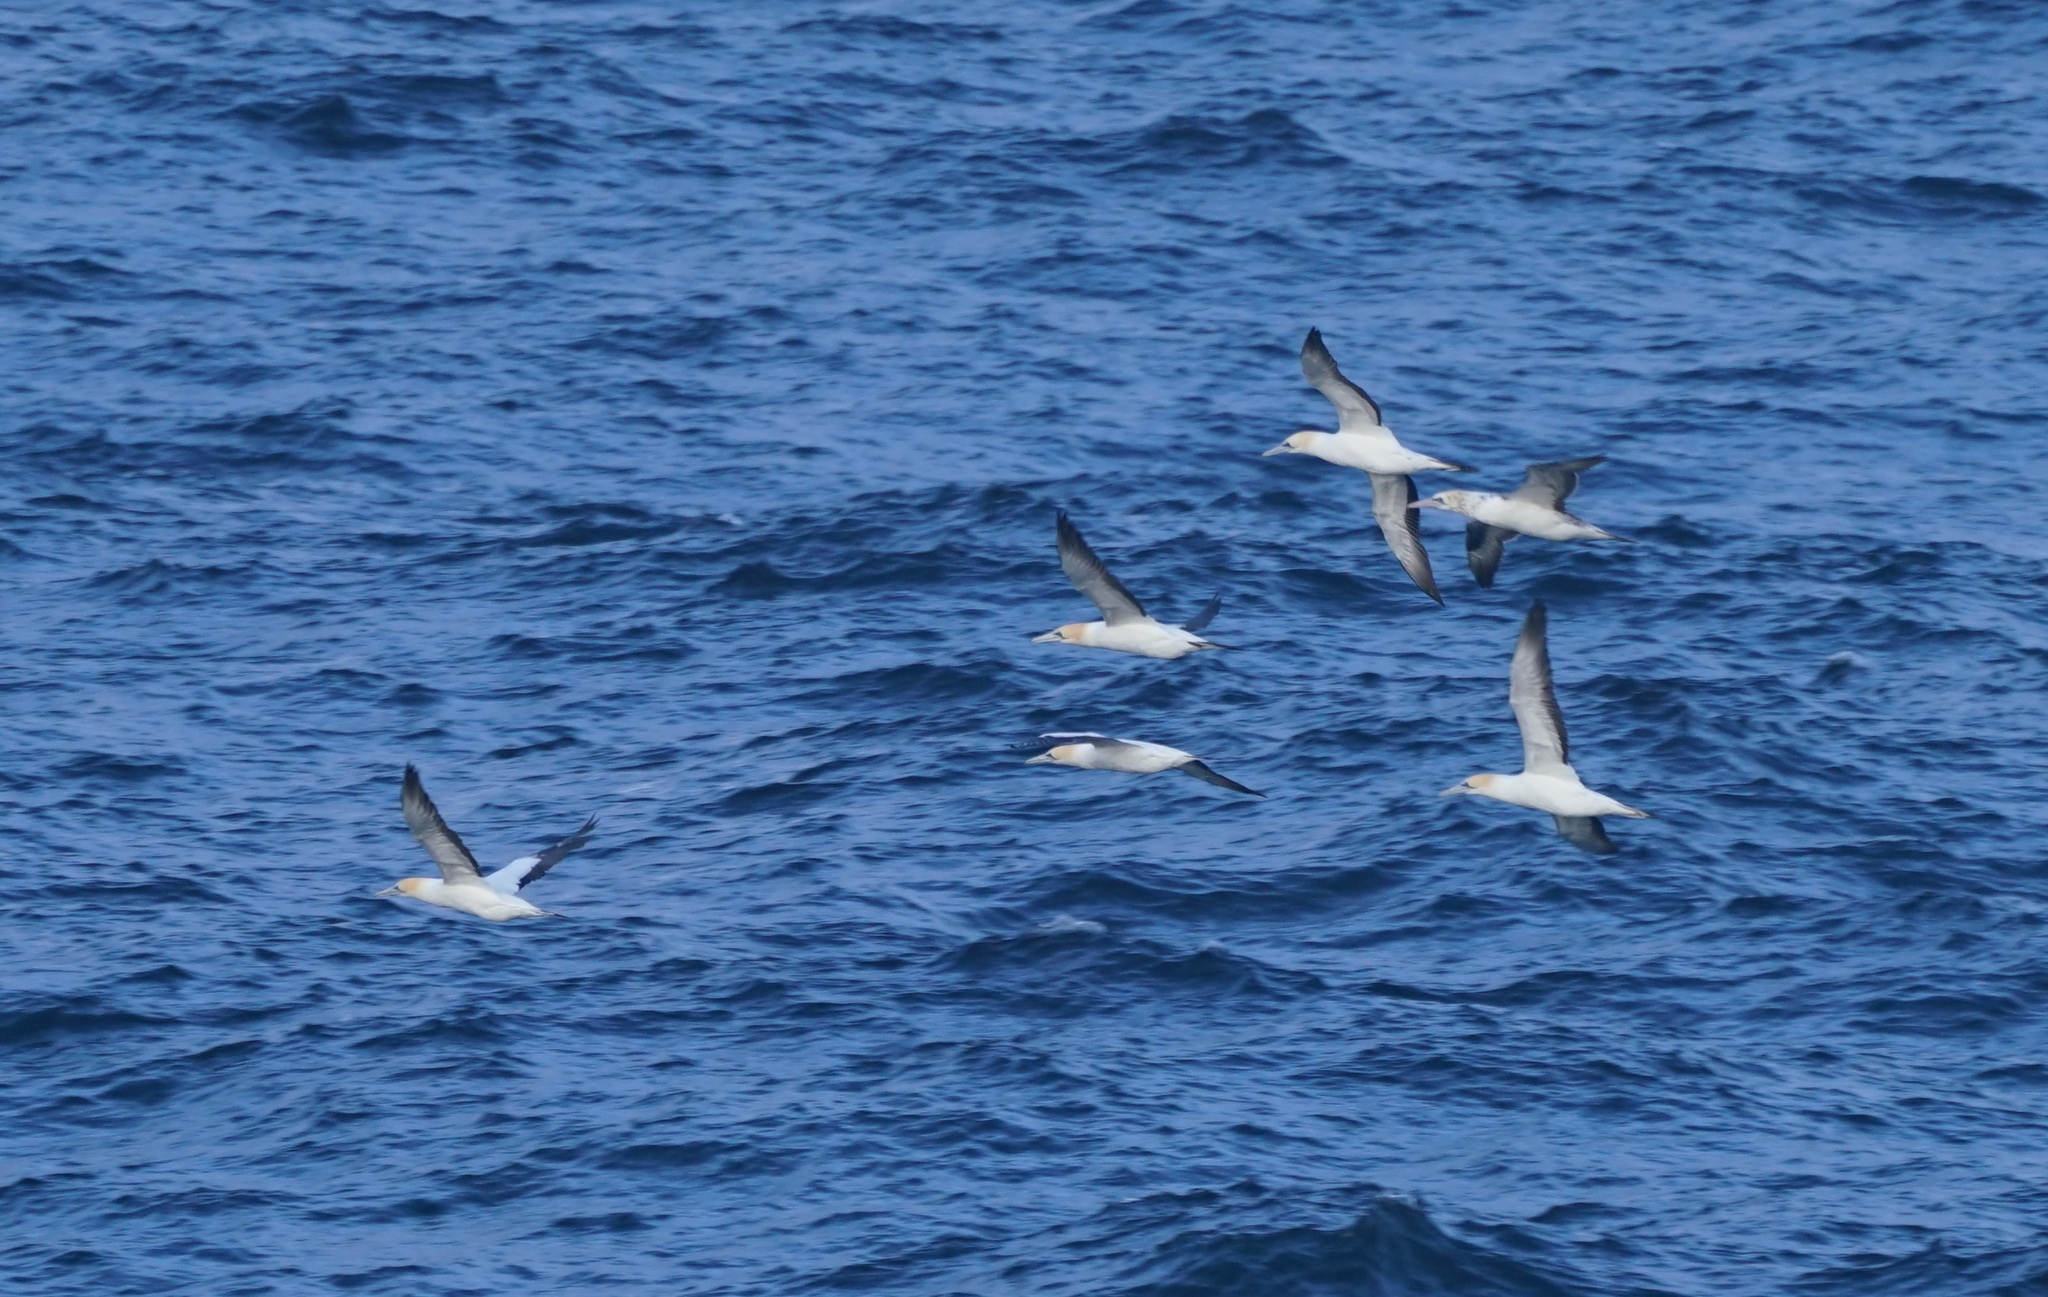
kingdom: Animalia
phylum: Chordata
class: Aves
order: Suliformes
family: Sulidae
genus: Morus
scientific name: Morus serrator
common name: Australasian gannet
